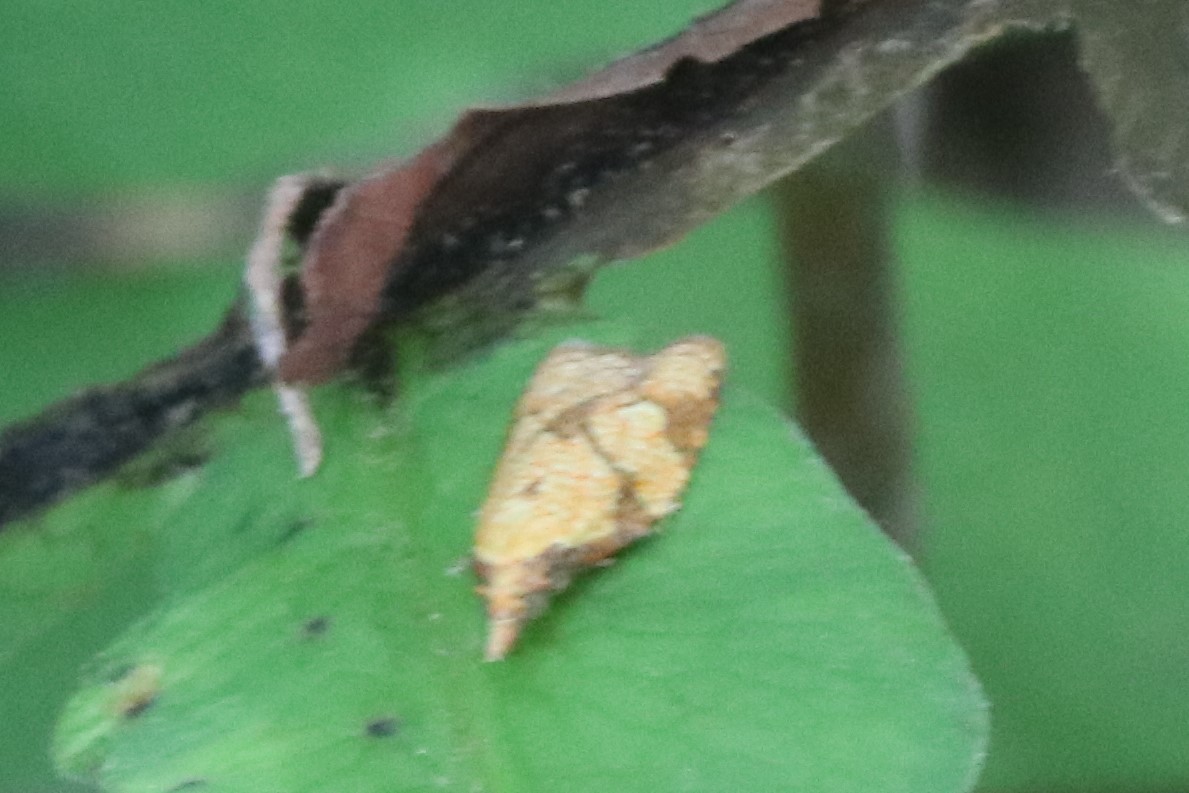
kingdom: Animalia
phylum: Arthropoda
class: Insecta
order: Lepidoptera
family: Tortricidae
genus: Cenopis
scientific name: Cenopis reticulatana
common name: Reticulated fruitworm moth
